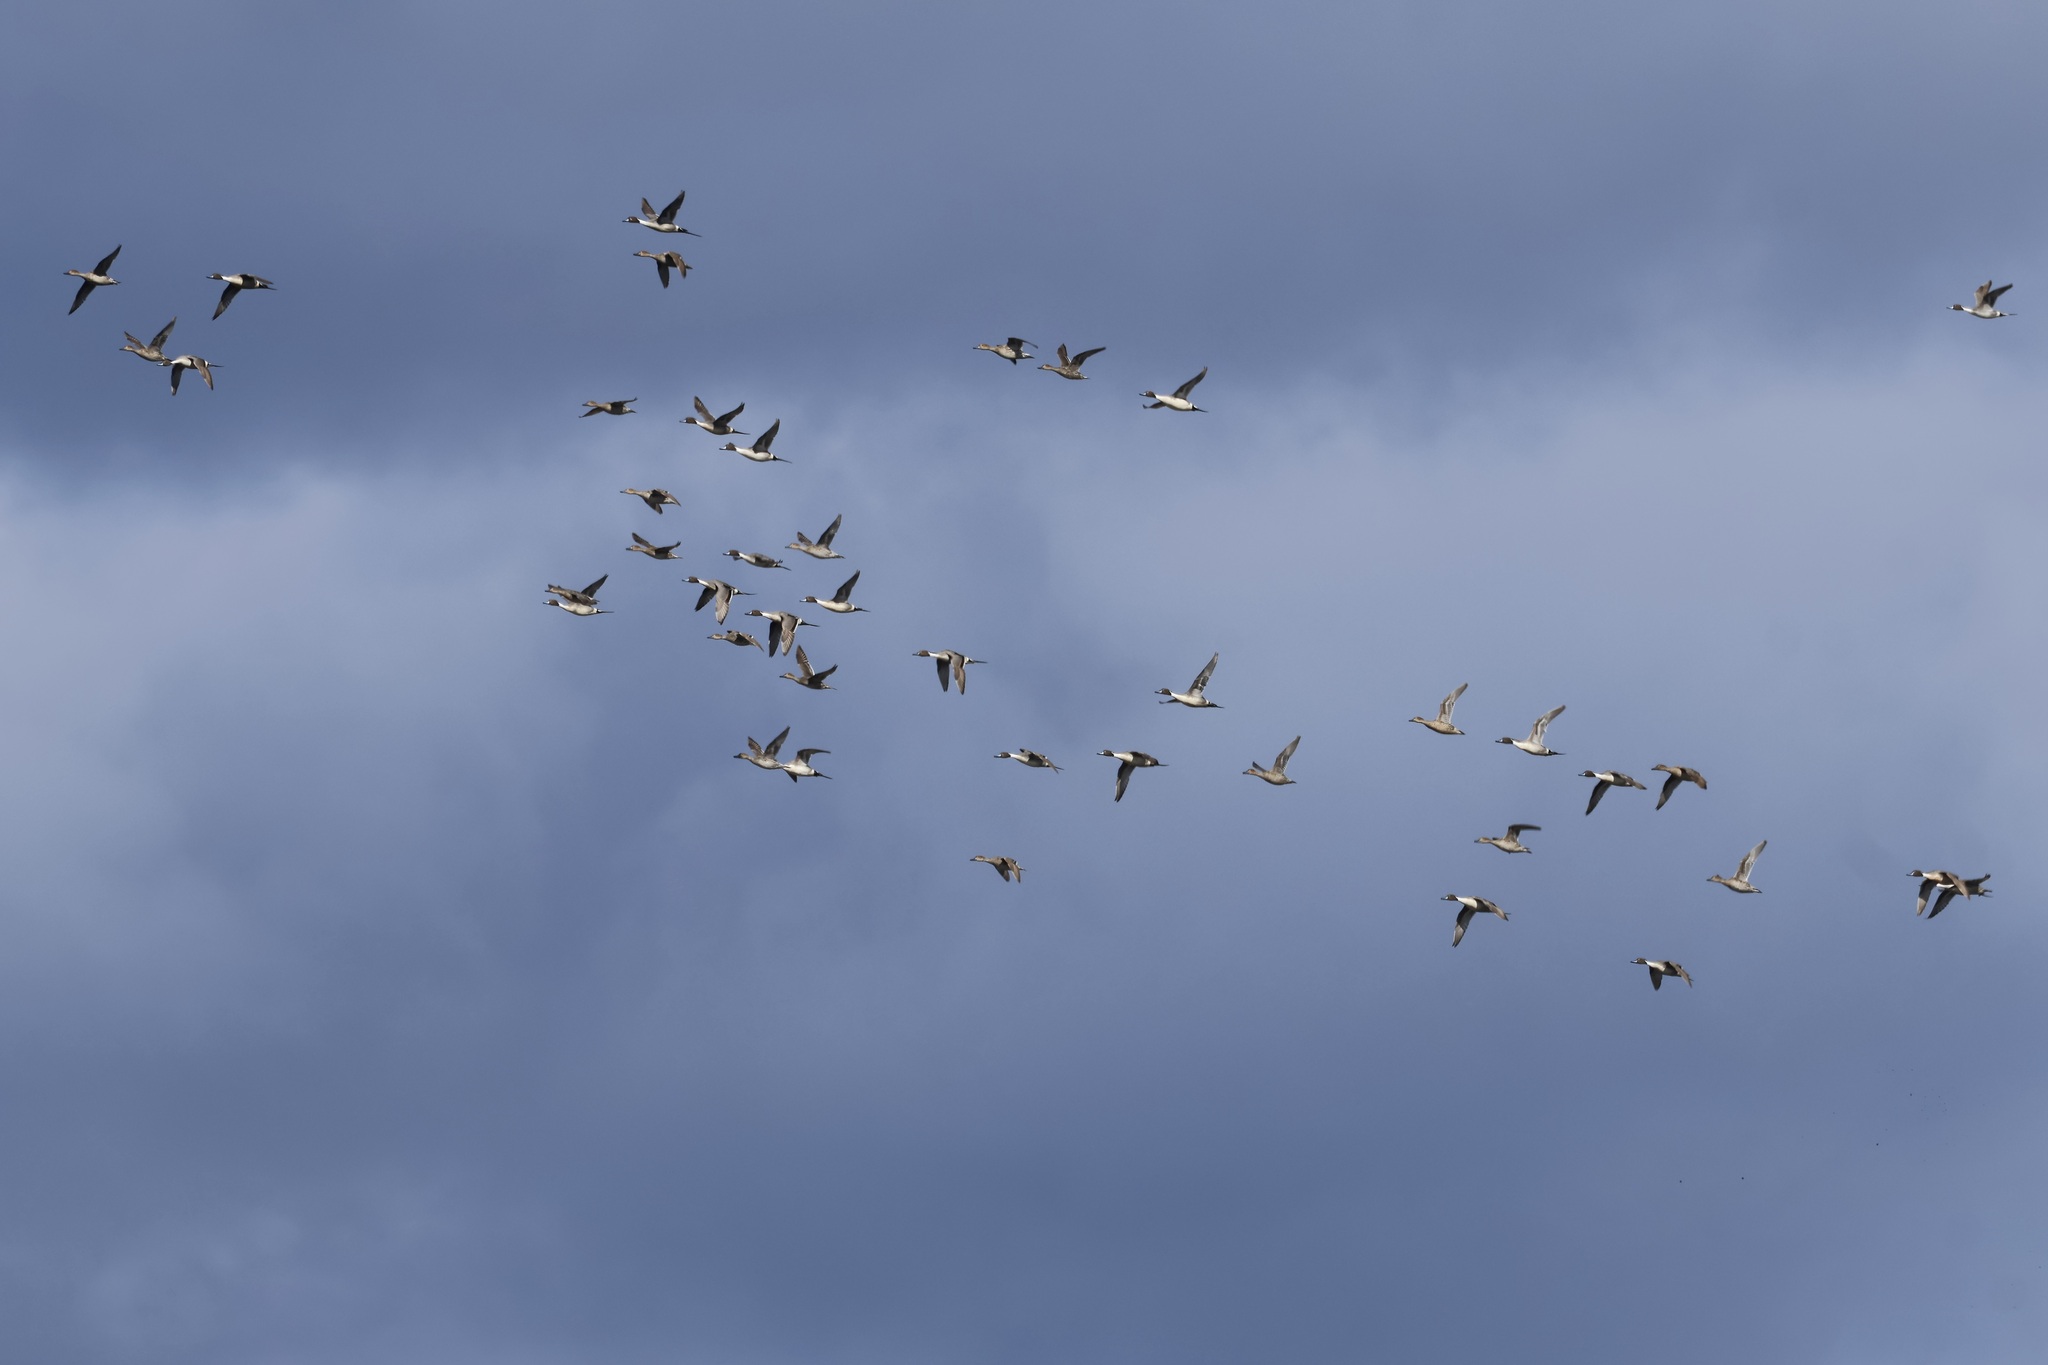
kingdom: Animalia
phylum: Chordata
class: Aves
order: Anseriformes
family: Anatidae
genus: Anas
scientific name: Anas acuta
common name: Northern pintail
